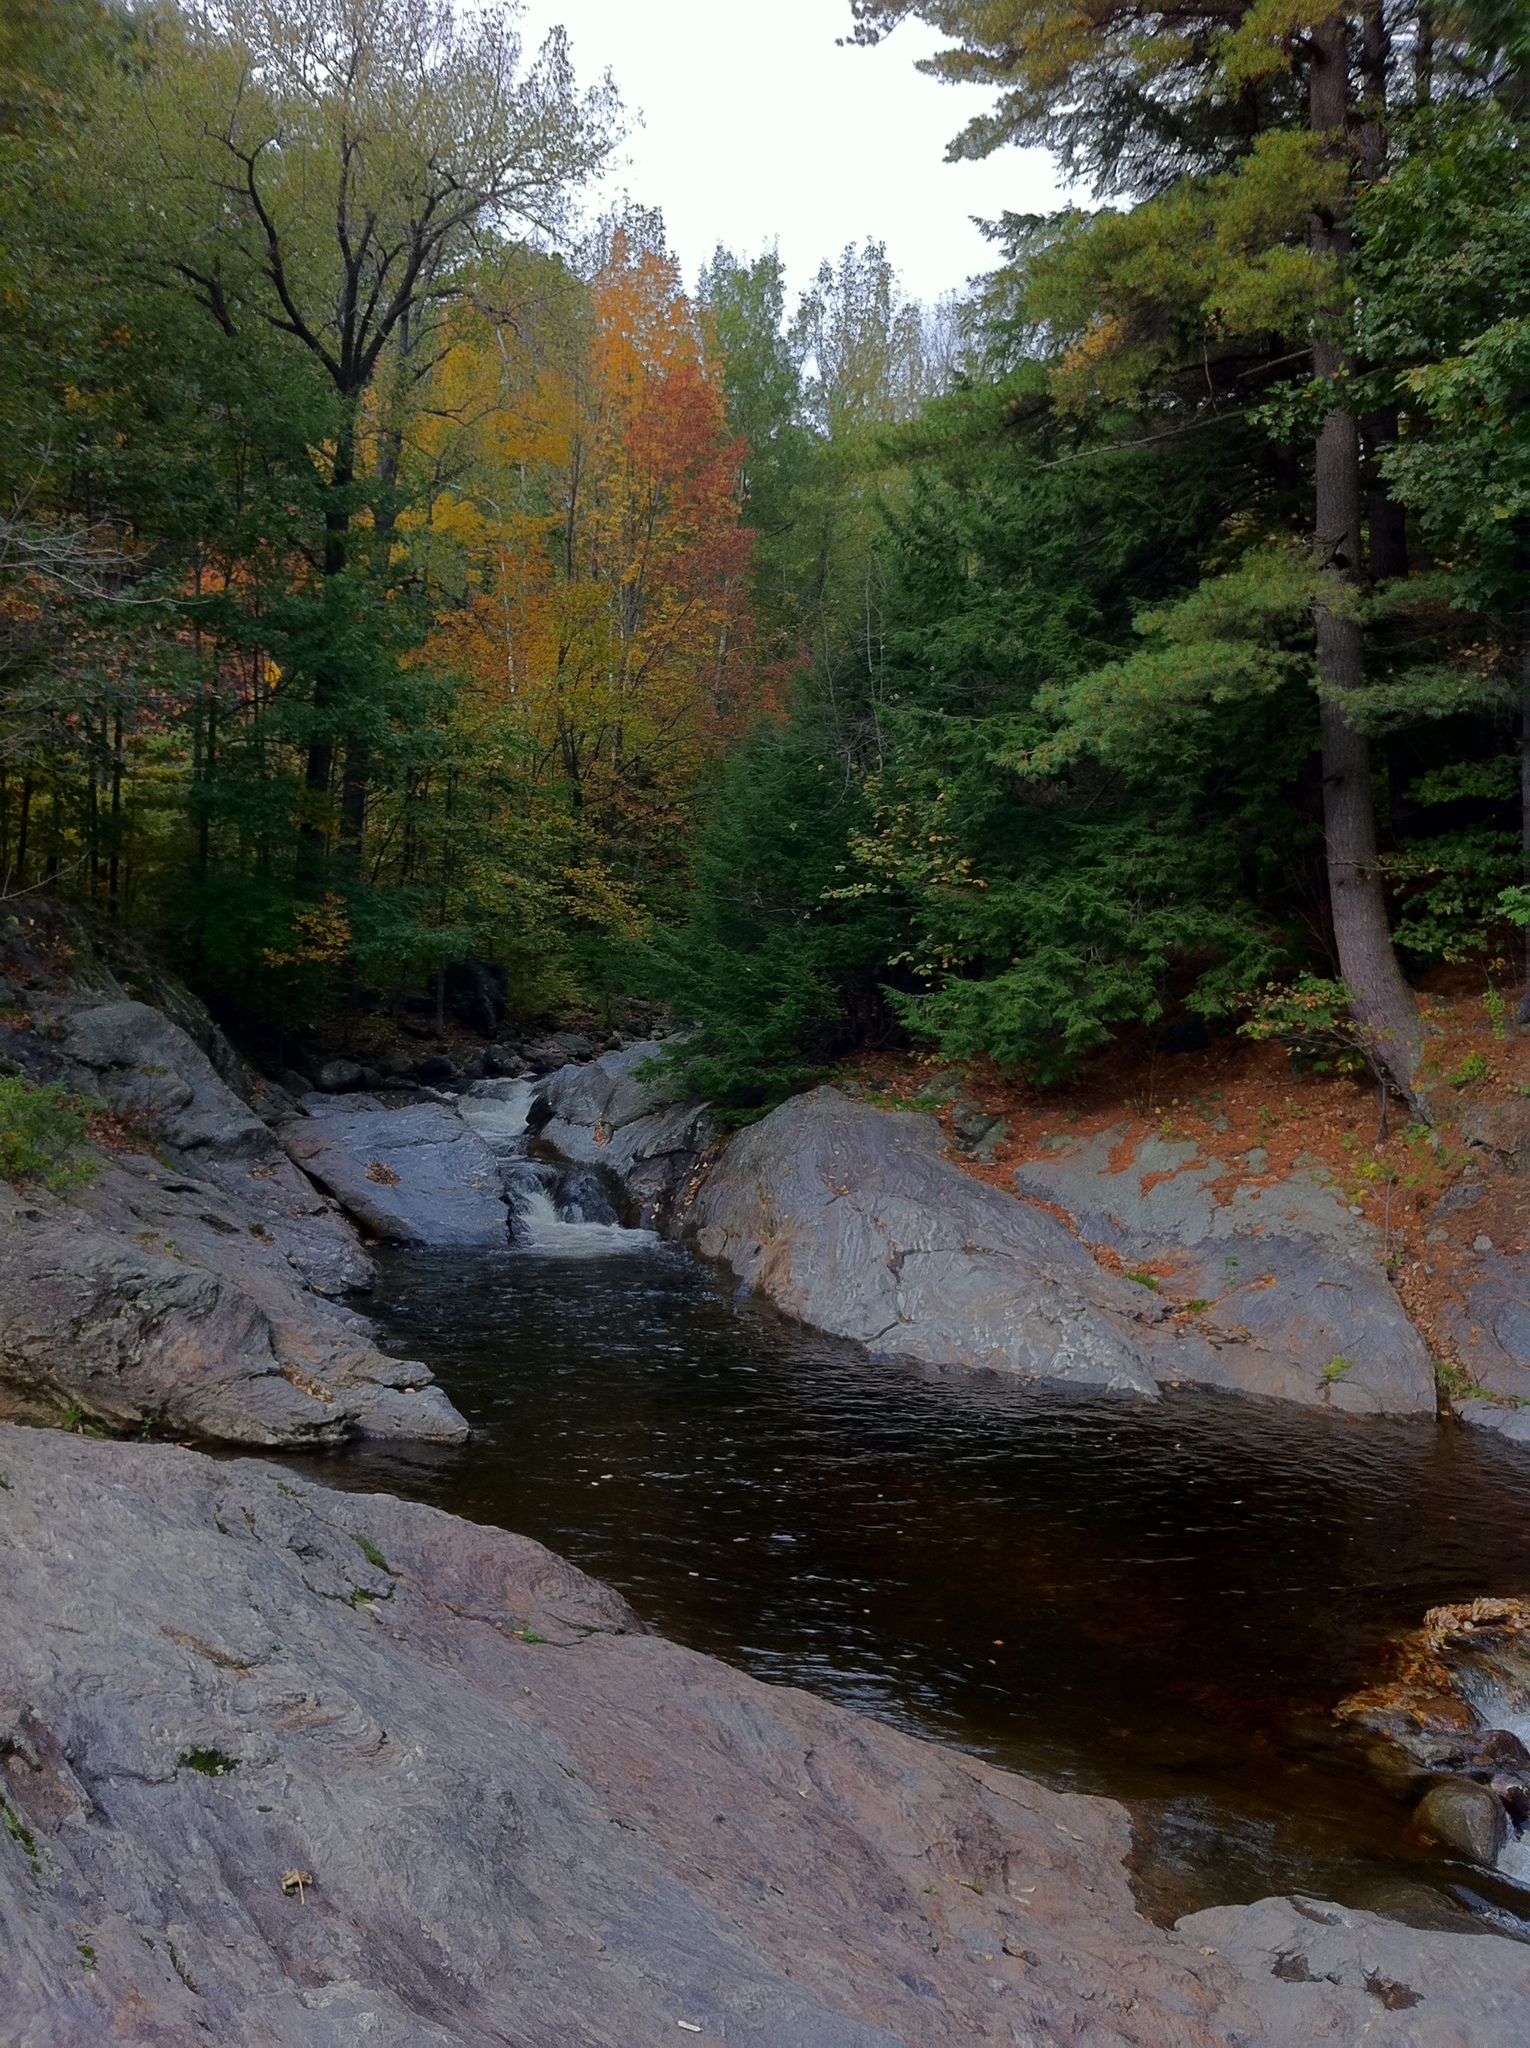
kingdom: Plantae
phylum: Tracheophyta
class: Pinopsida
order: Pinales
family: Pinaceae
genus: Tsuga
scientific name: Tsuga canadensis
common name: Eastern hemlock
